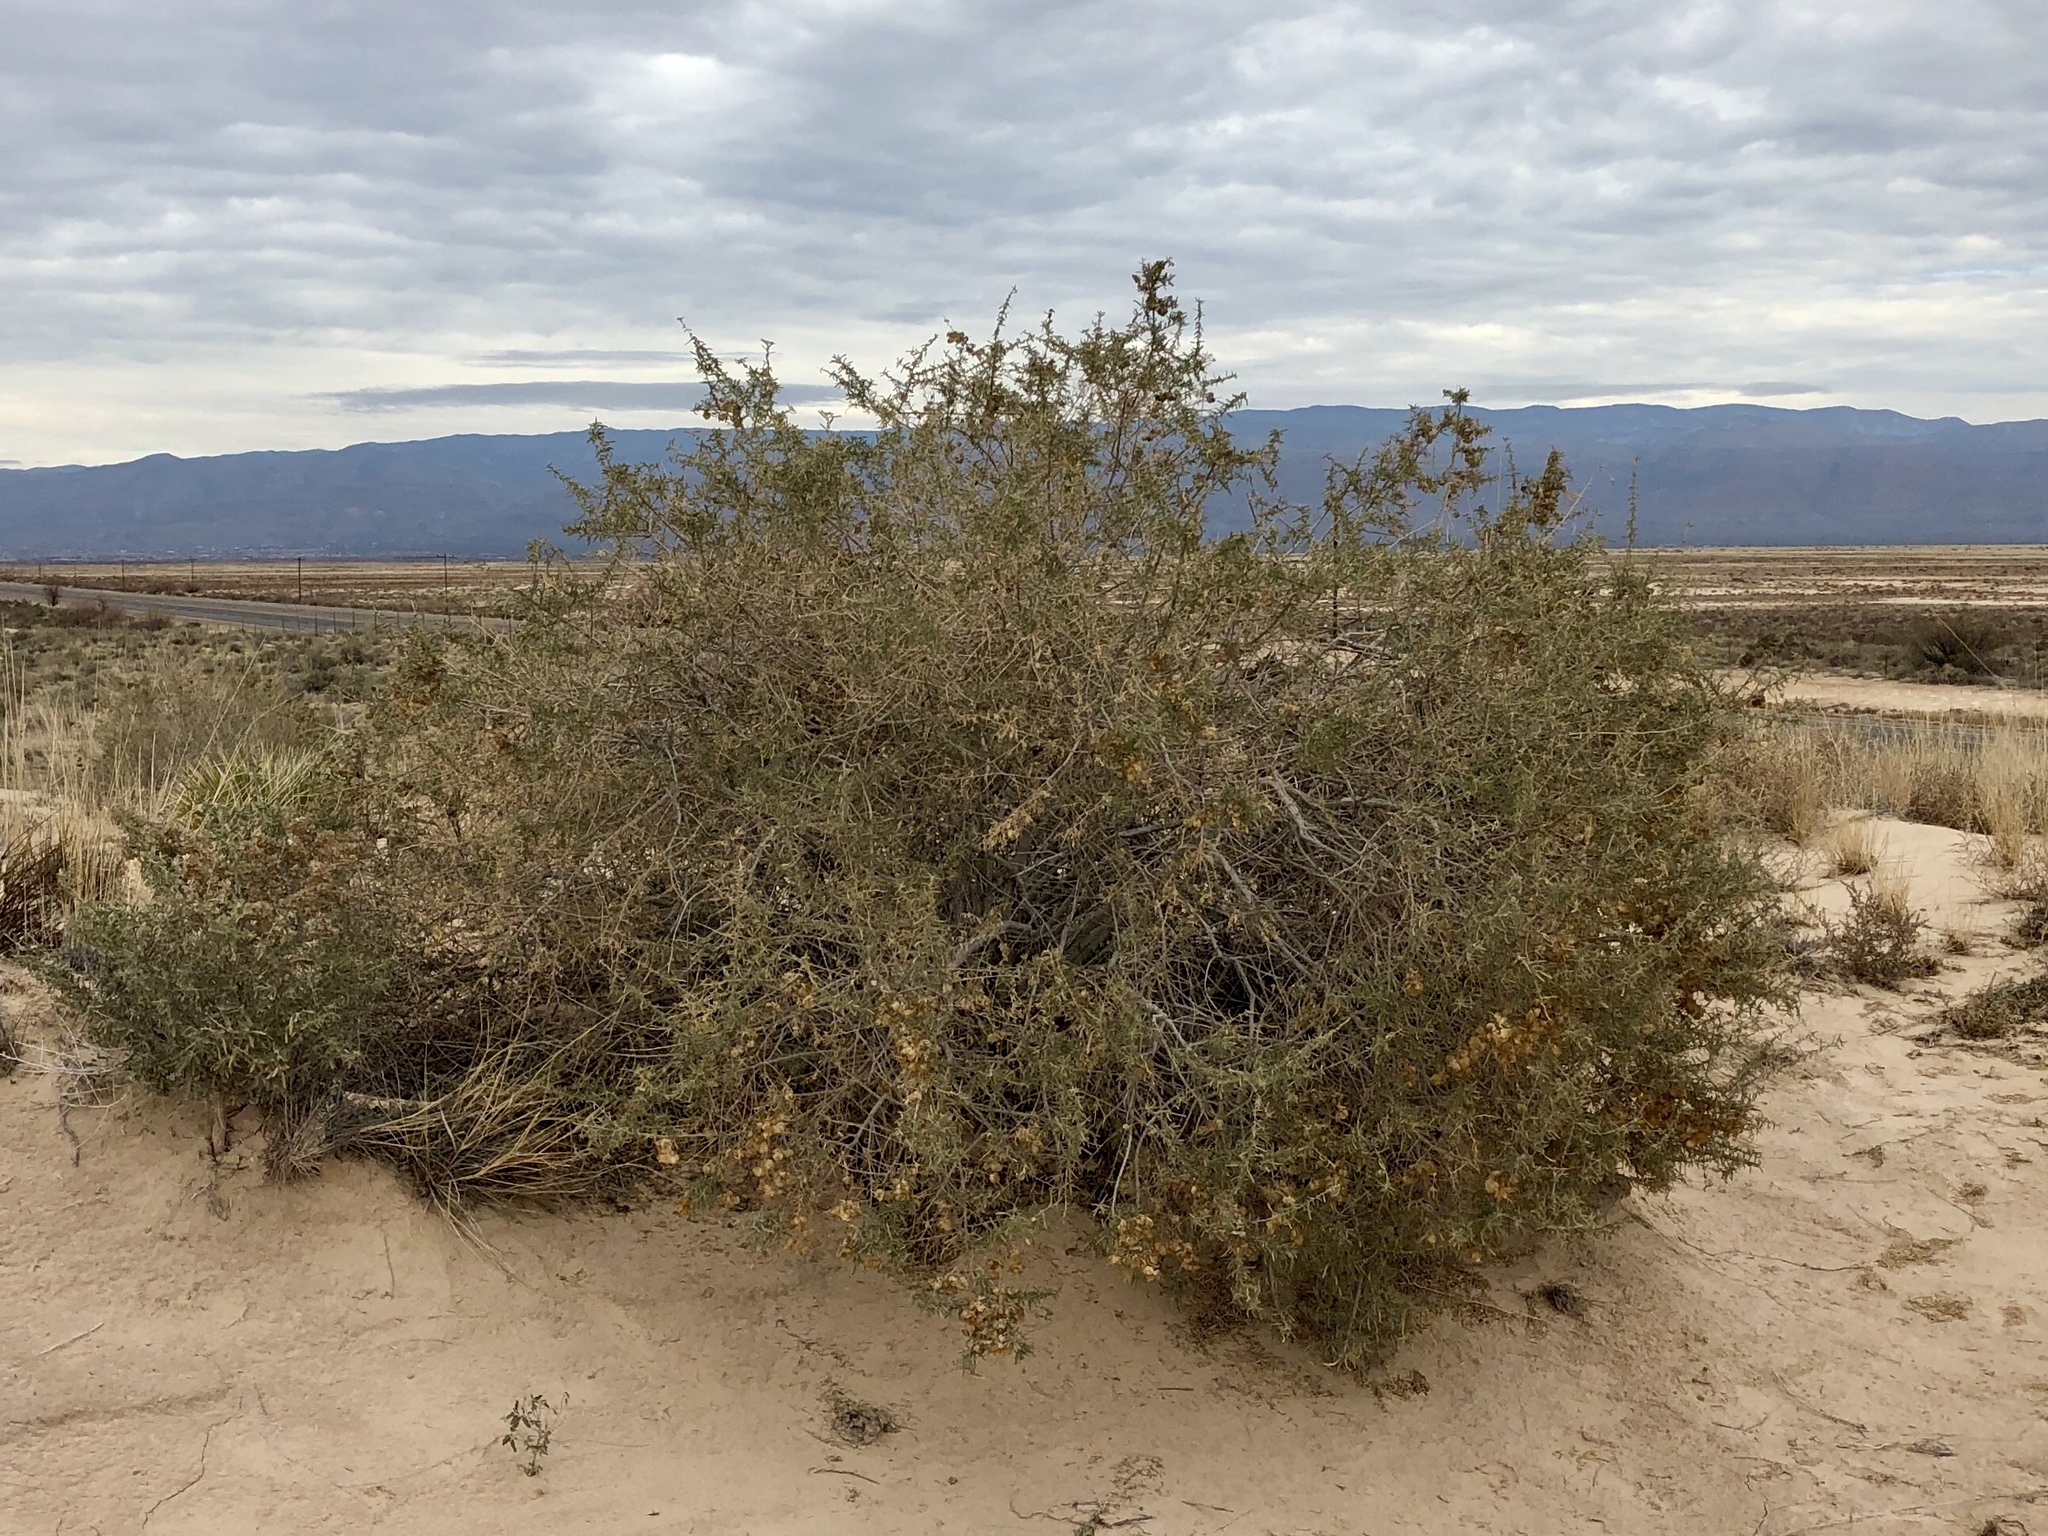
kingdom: Plantae
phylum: Tracheophyta
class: Magnoliopsida
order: Caryophyllales
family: Amaranthaceae
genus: Atriplex
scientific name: Atriplex canescens
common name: Four-wing saltbush
